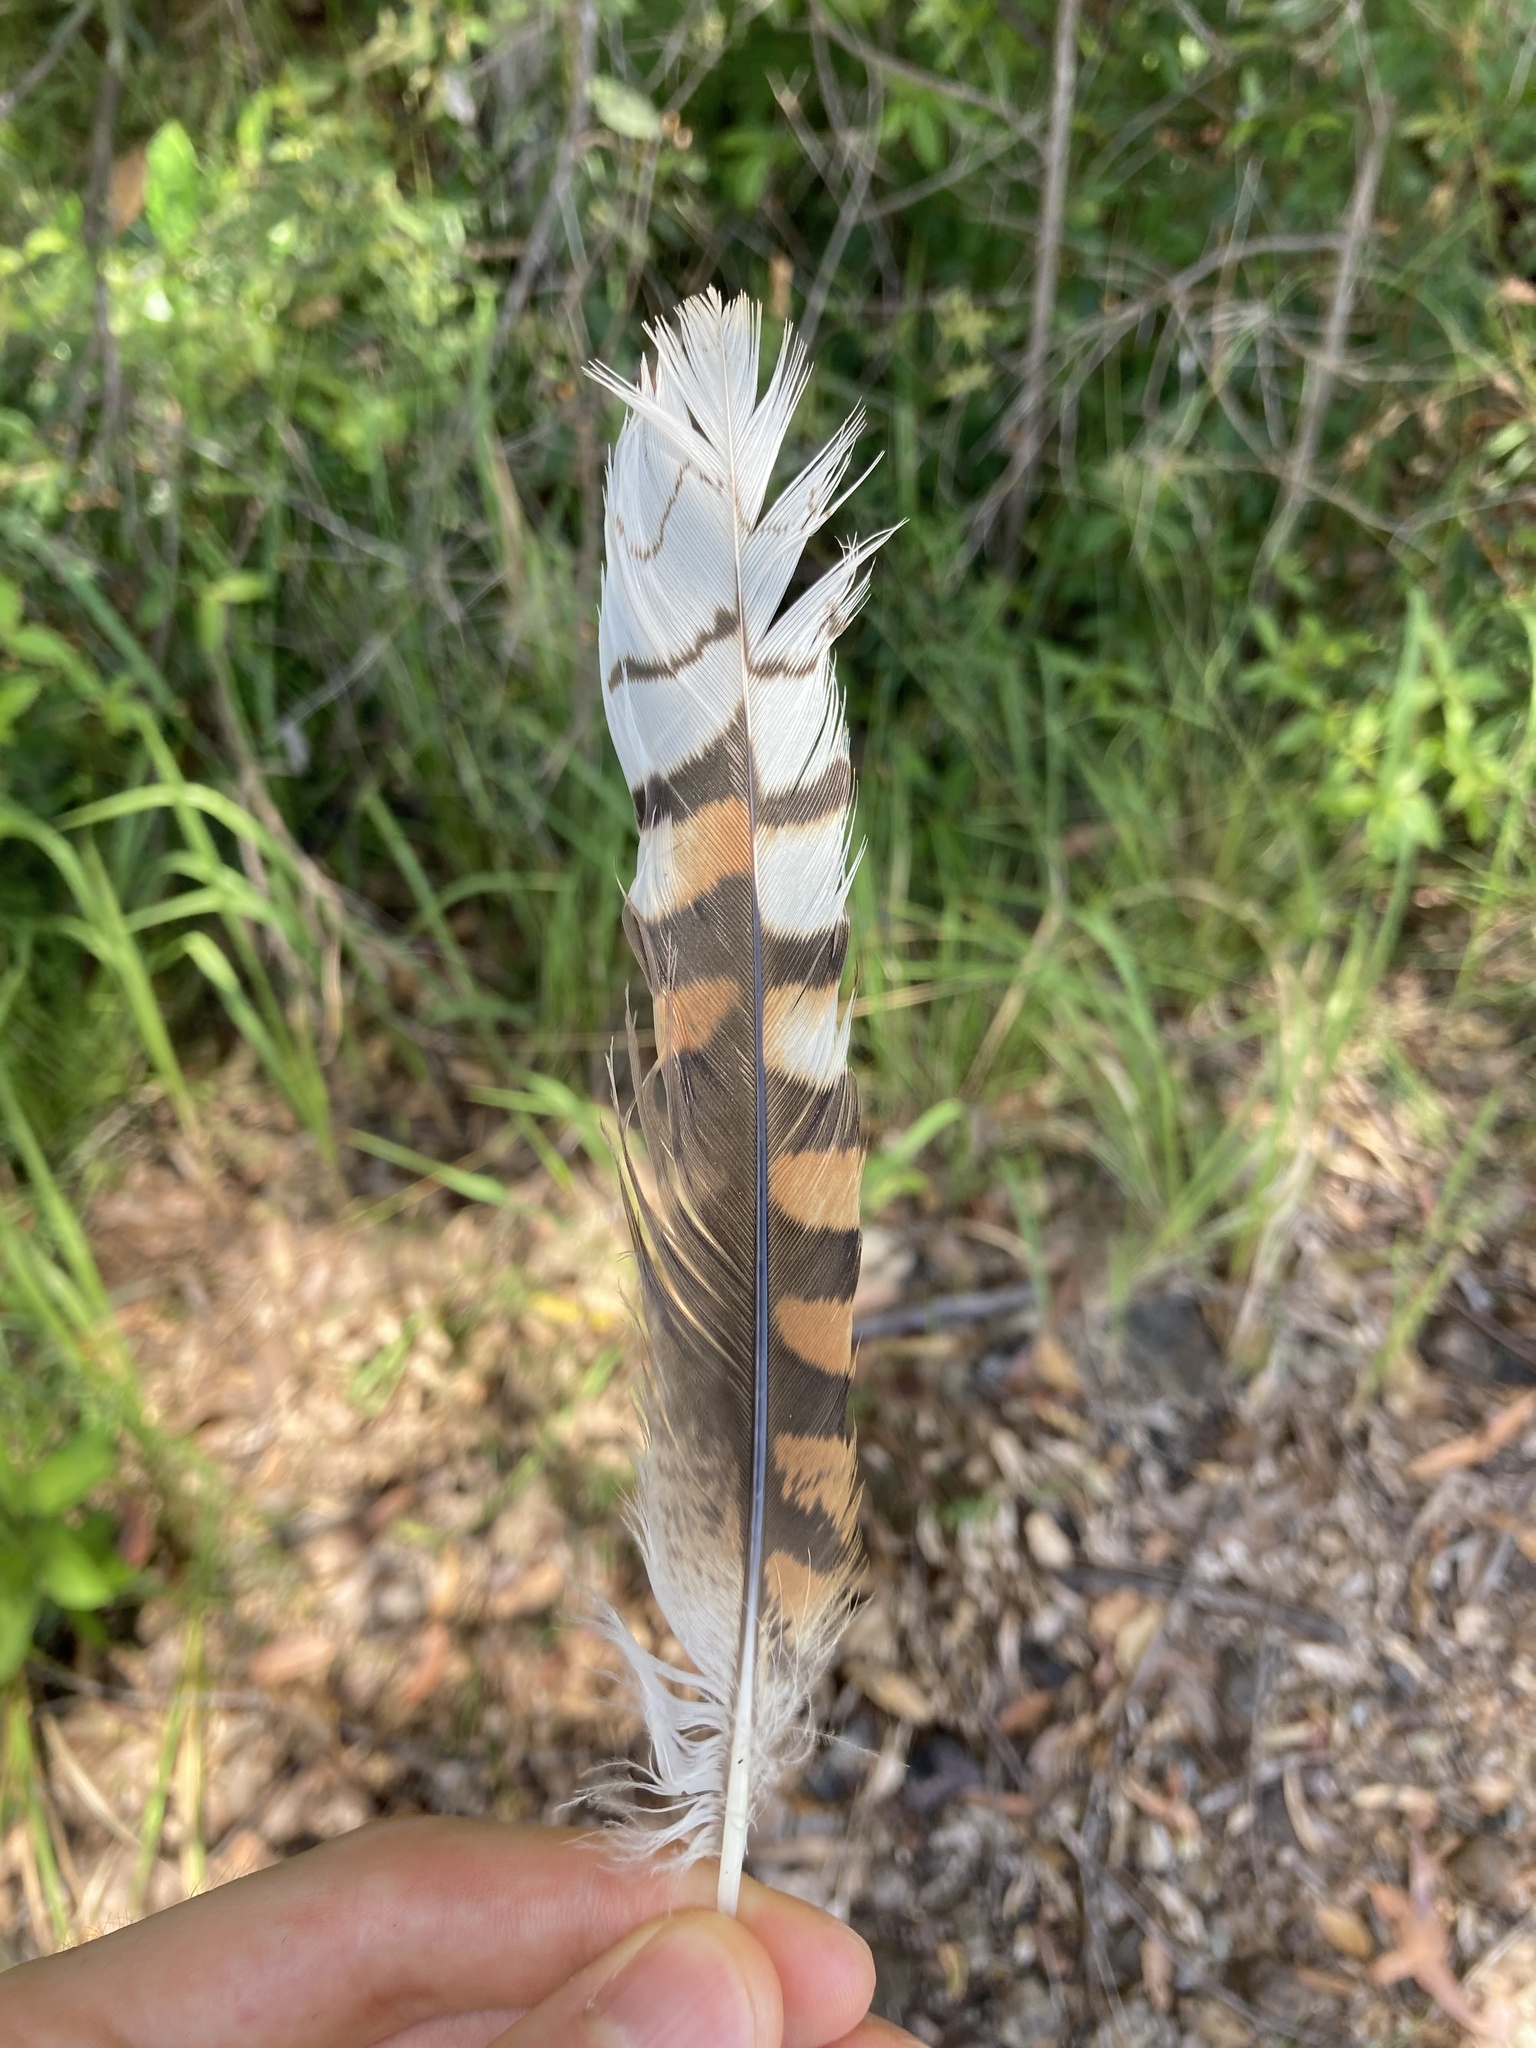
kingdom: Animalia
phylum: Chordata
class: Aves
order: Coraciiformes
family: Alcedinidae
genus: Dacelo
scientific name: Dacelo novaeguineae
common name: Laughing kookaburra
